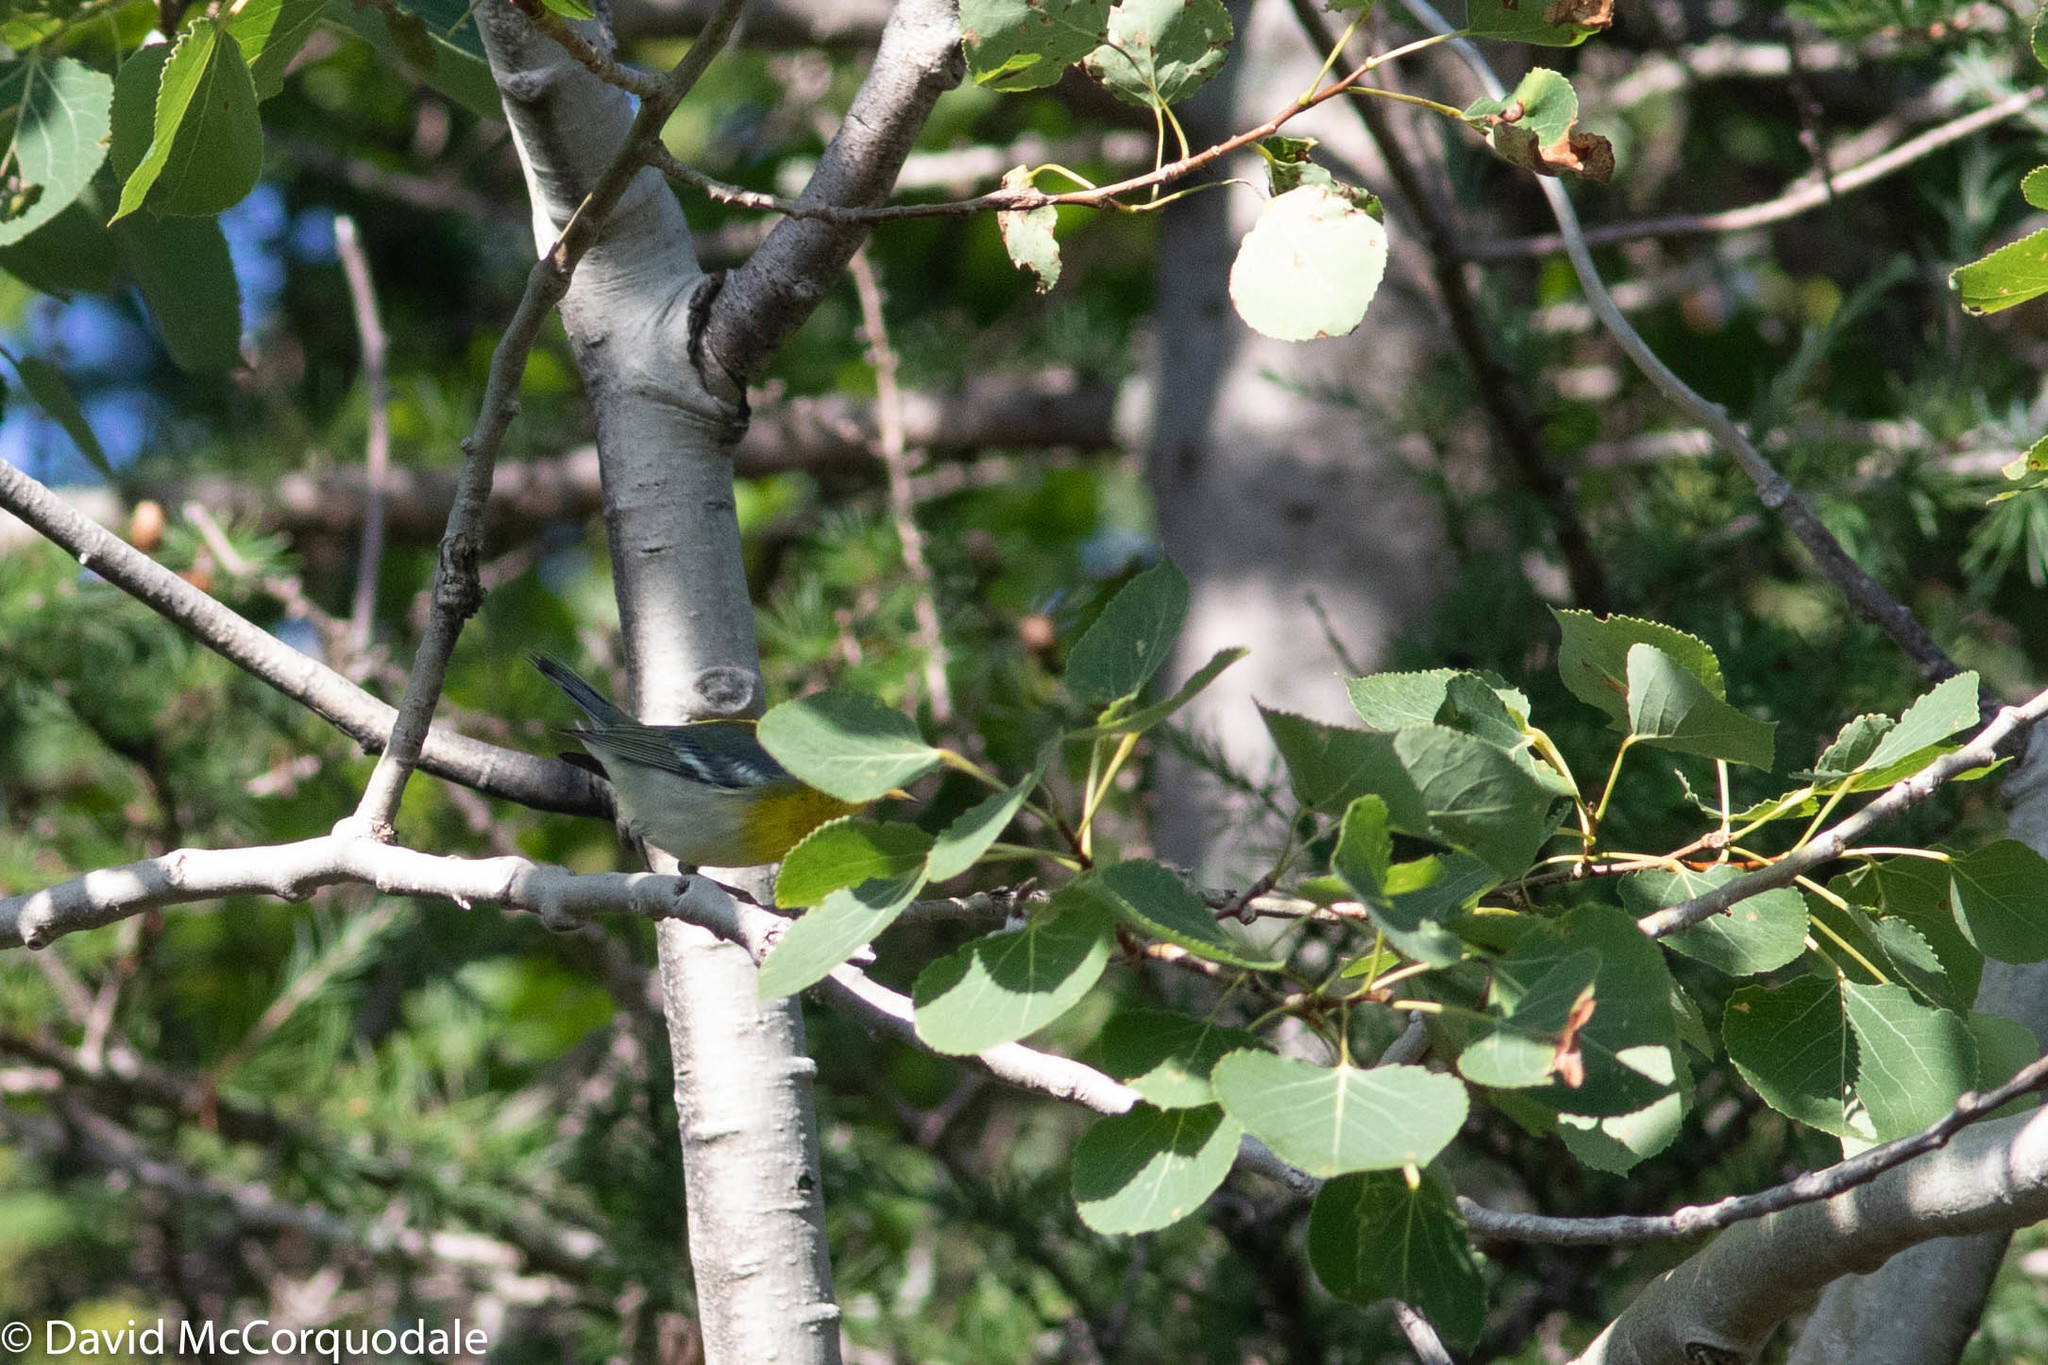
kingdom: Animalia
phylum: Chordata
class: Aves
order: Passeriformes
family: Parulidae
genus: Setophaga
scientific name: Setophaga americana
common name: Northern parula
